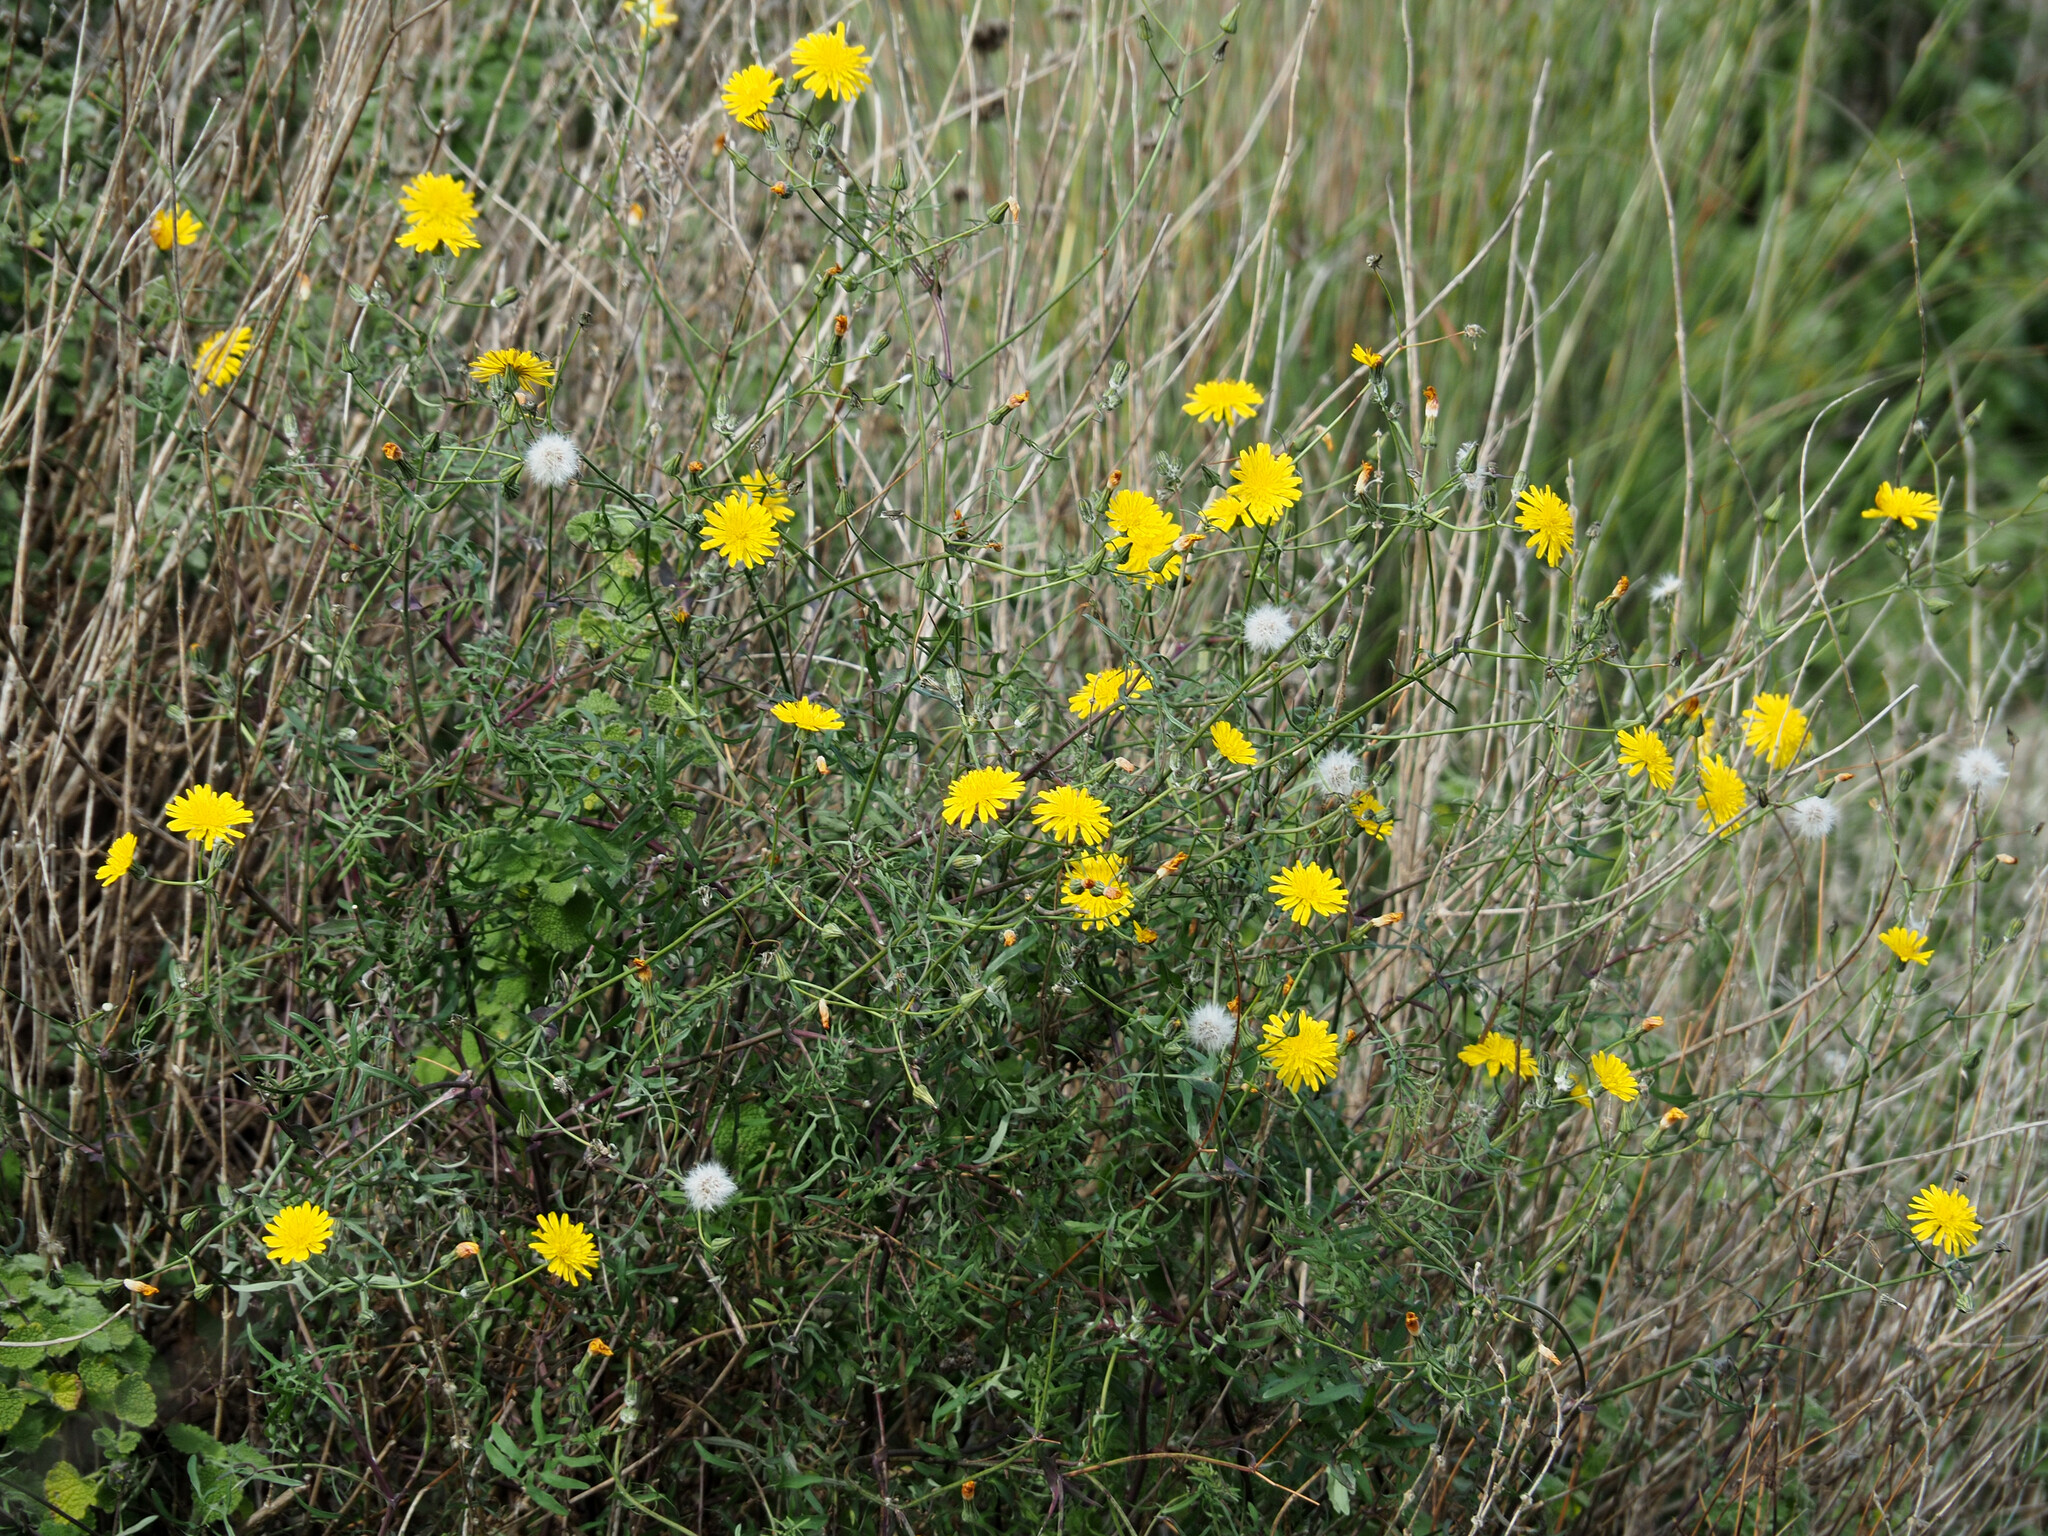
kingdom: Plantae
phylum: Tracheophyta
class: Magnoliopsida
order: Asterales
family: Asteraceae
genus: Sonchus
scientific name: Sonchus tenerrimus
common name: Clammy sowthistle
